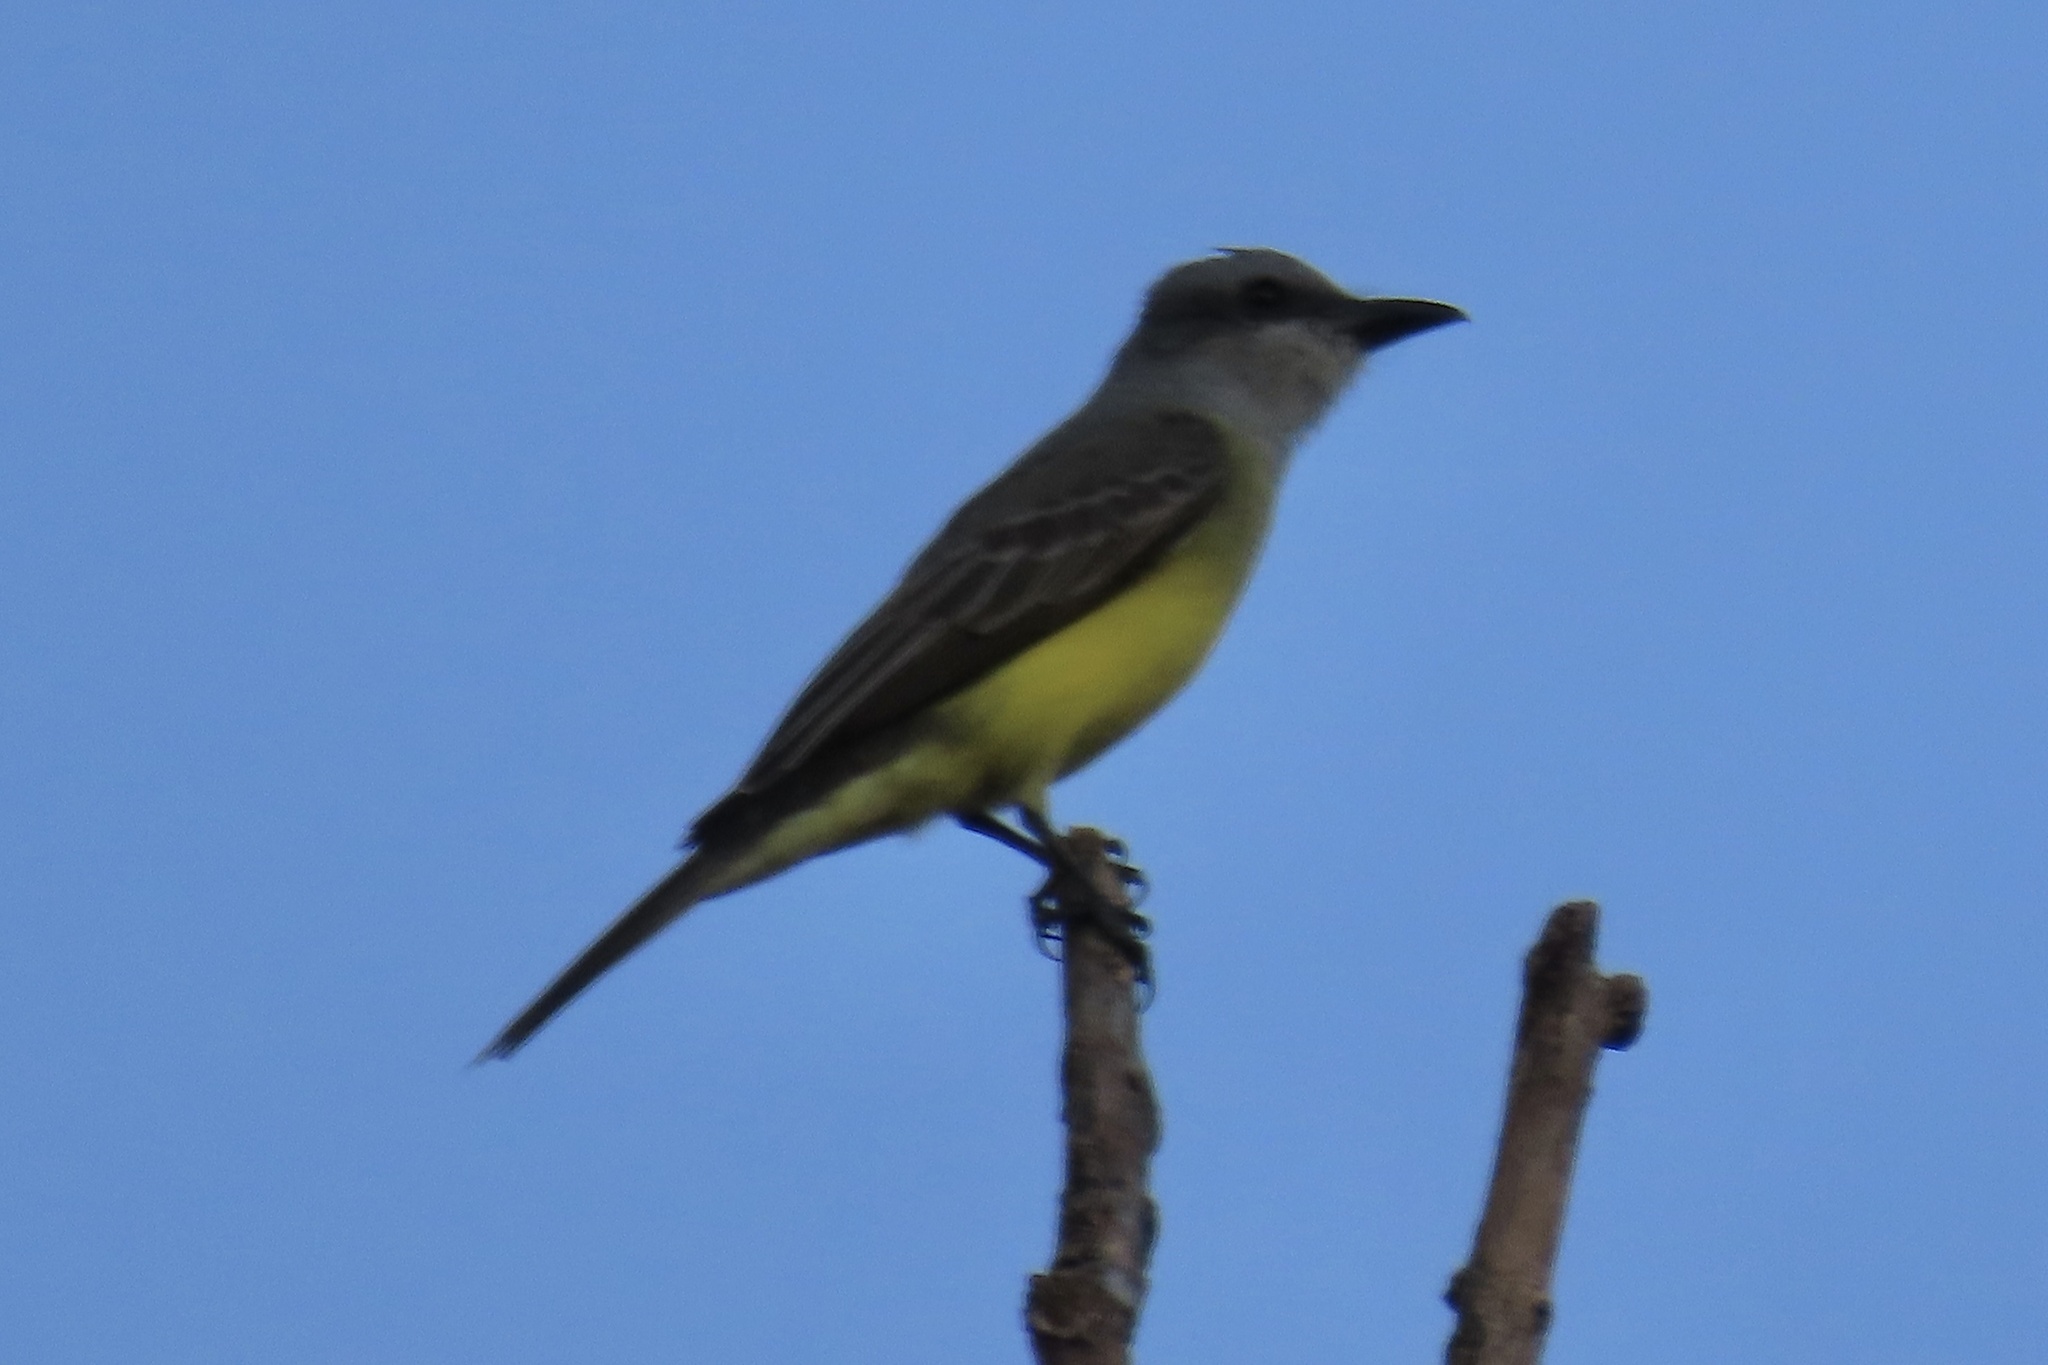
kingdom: Animalia
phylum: Chordata
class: Aves
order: Passeriformes
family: Tyrannidae
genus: Tyrannus
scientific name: Tyrannus melancholicus
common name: Tropical kingbird
